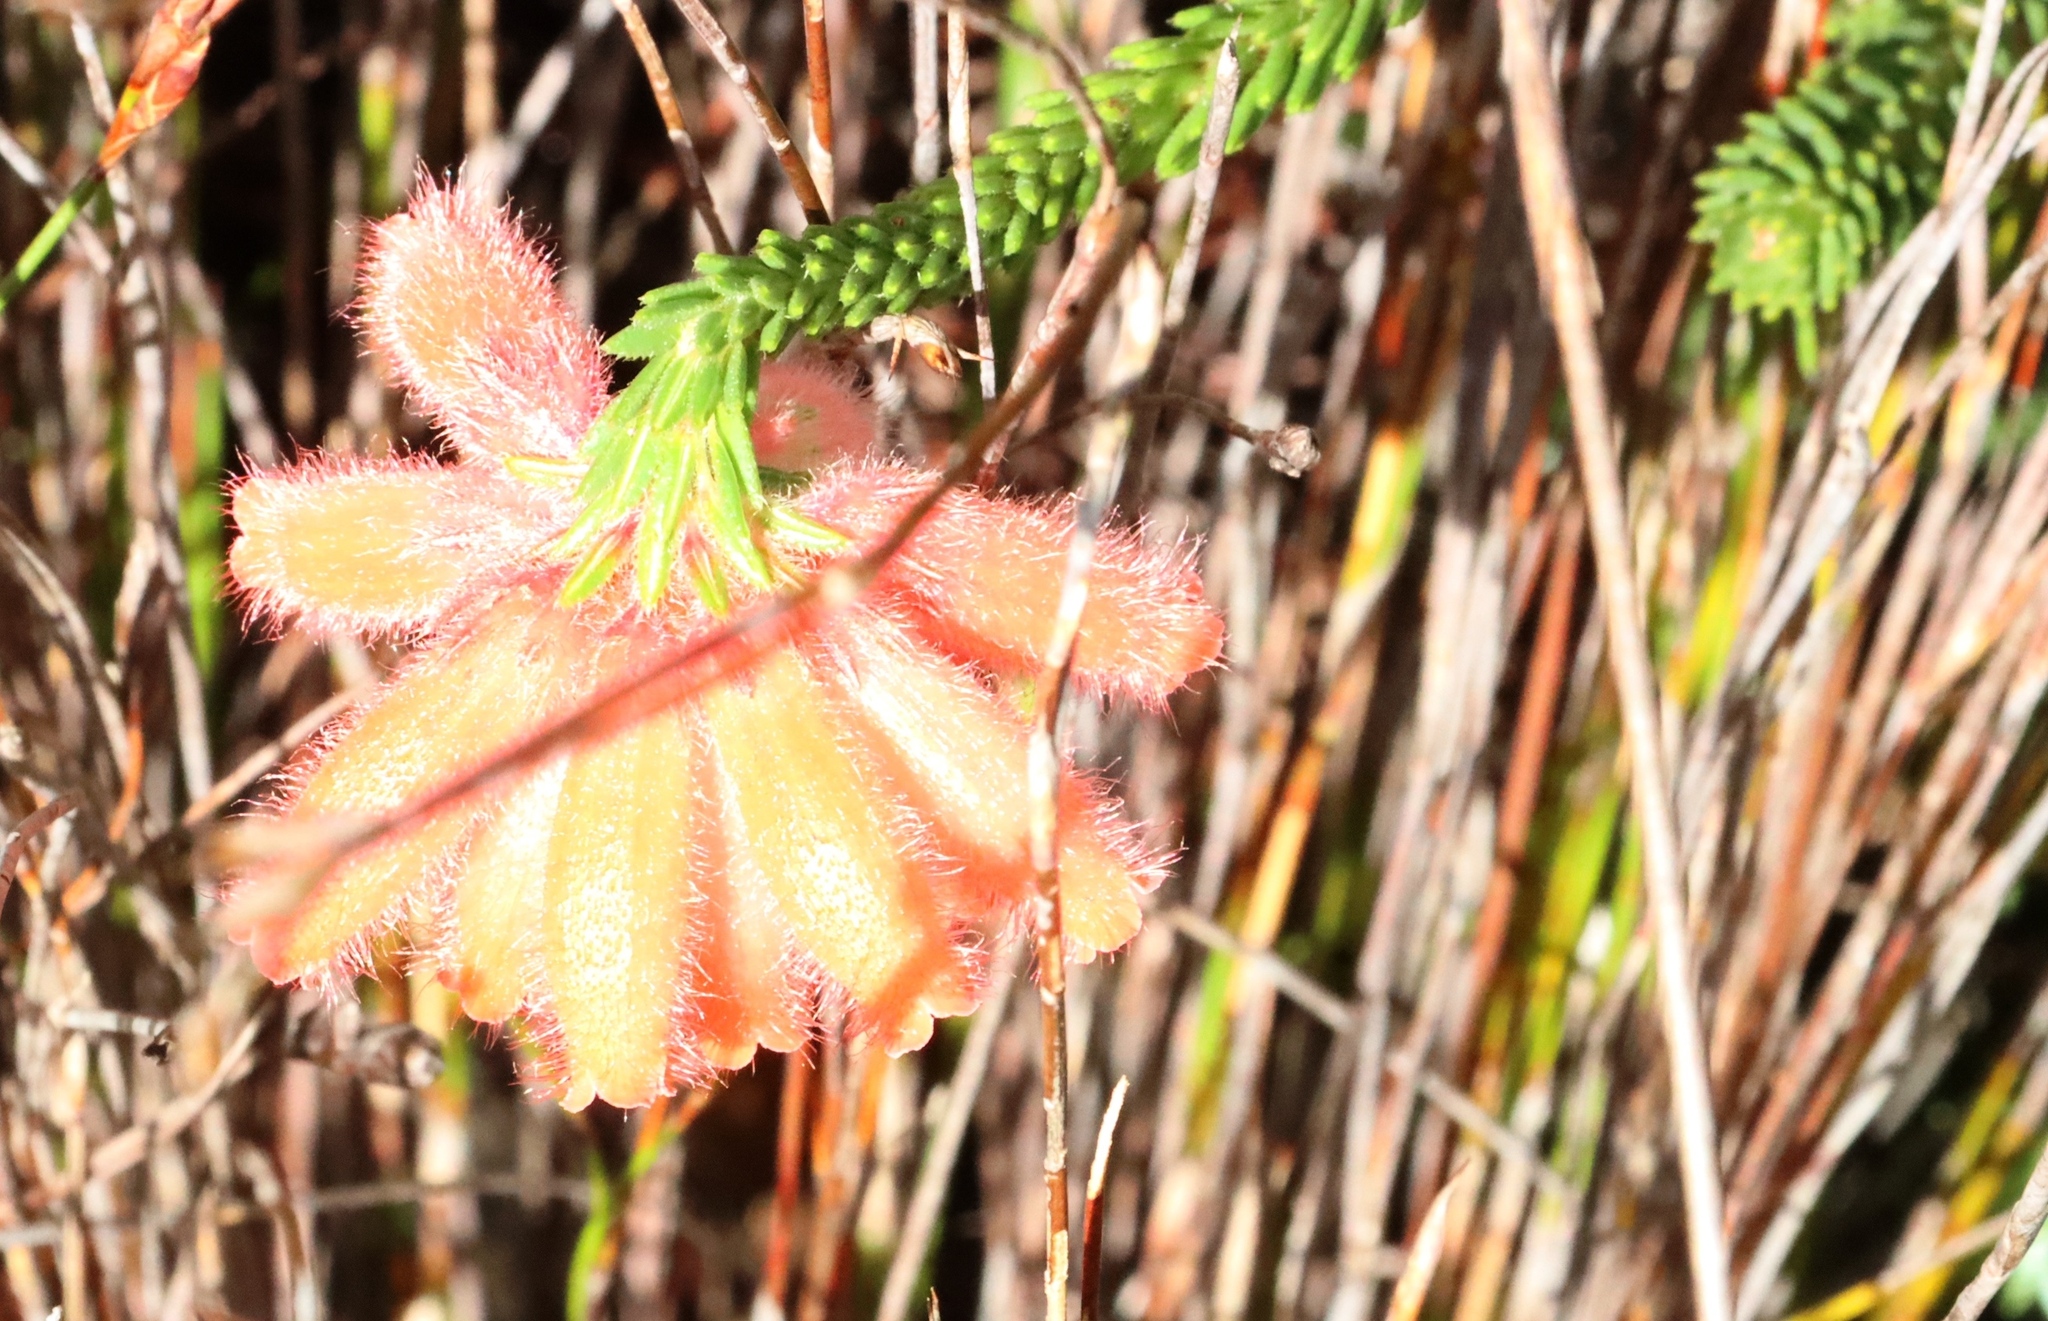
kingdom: Plantae
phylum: Tracheophyta
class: Magnoliopsida
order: Ericales
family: Ericaceae
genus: Erica
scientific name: Erica cerinthoides
